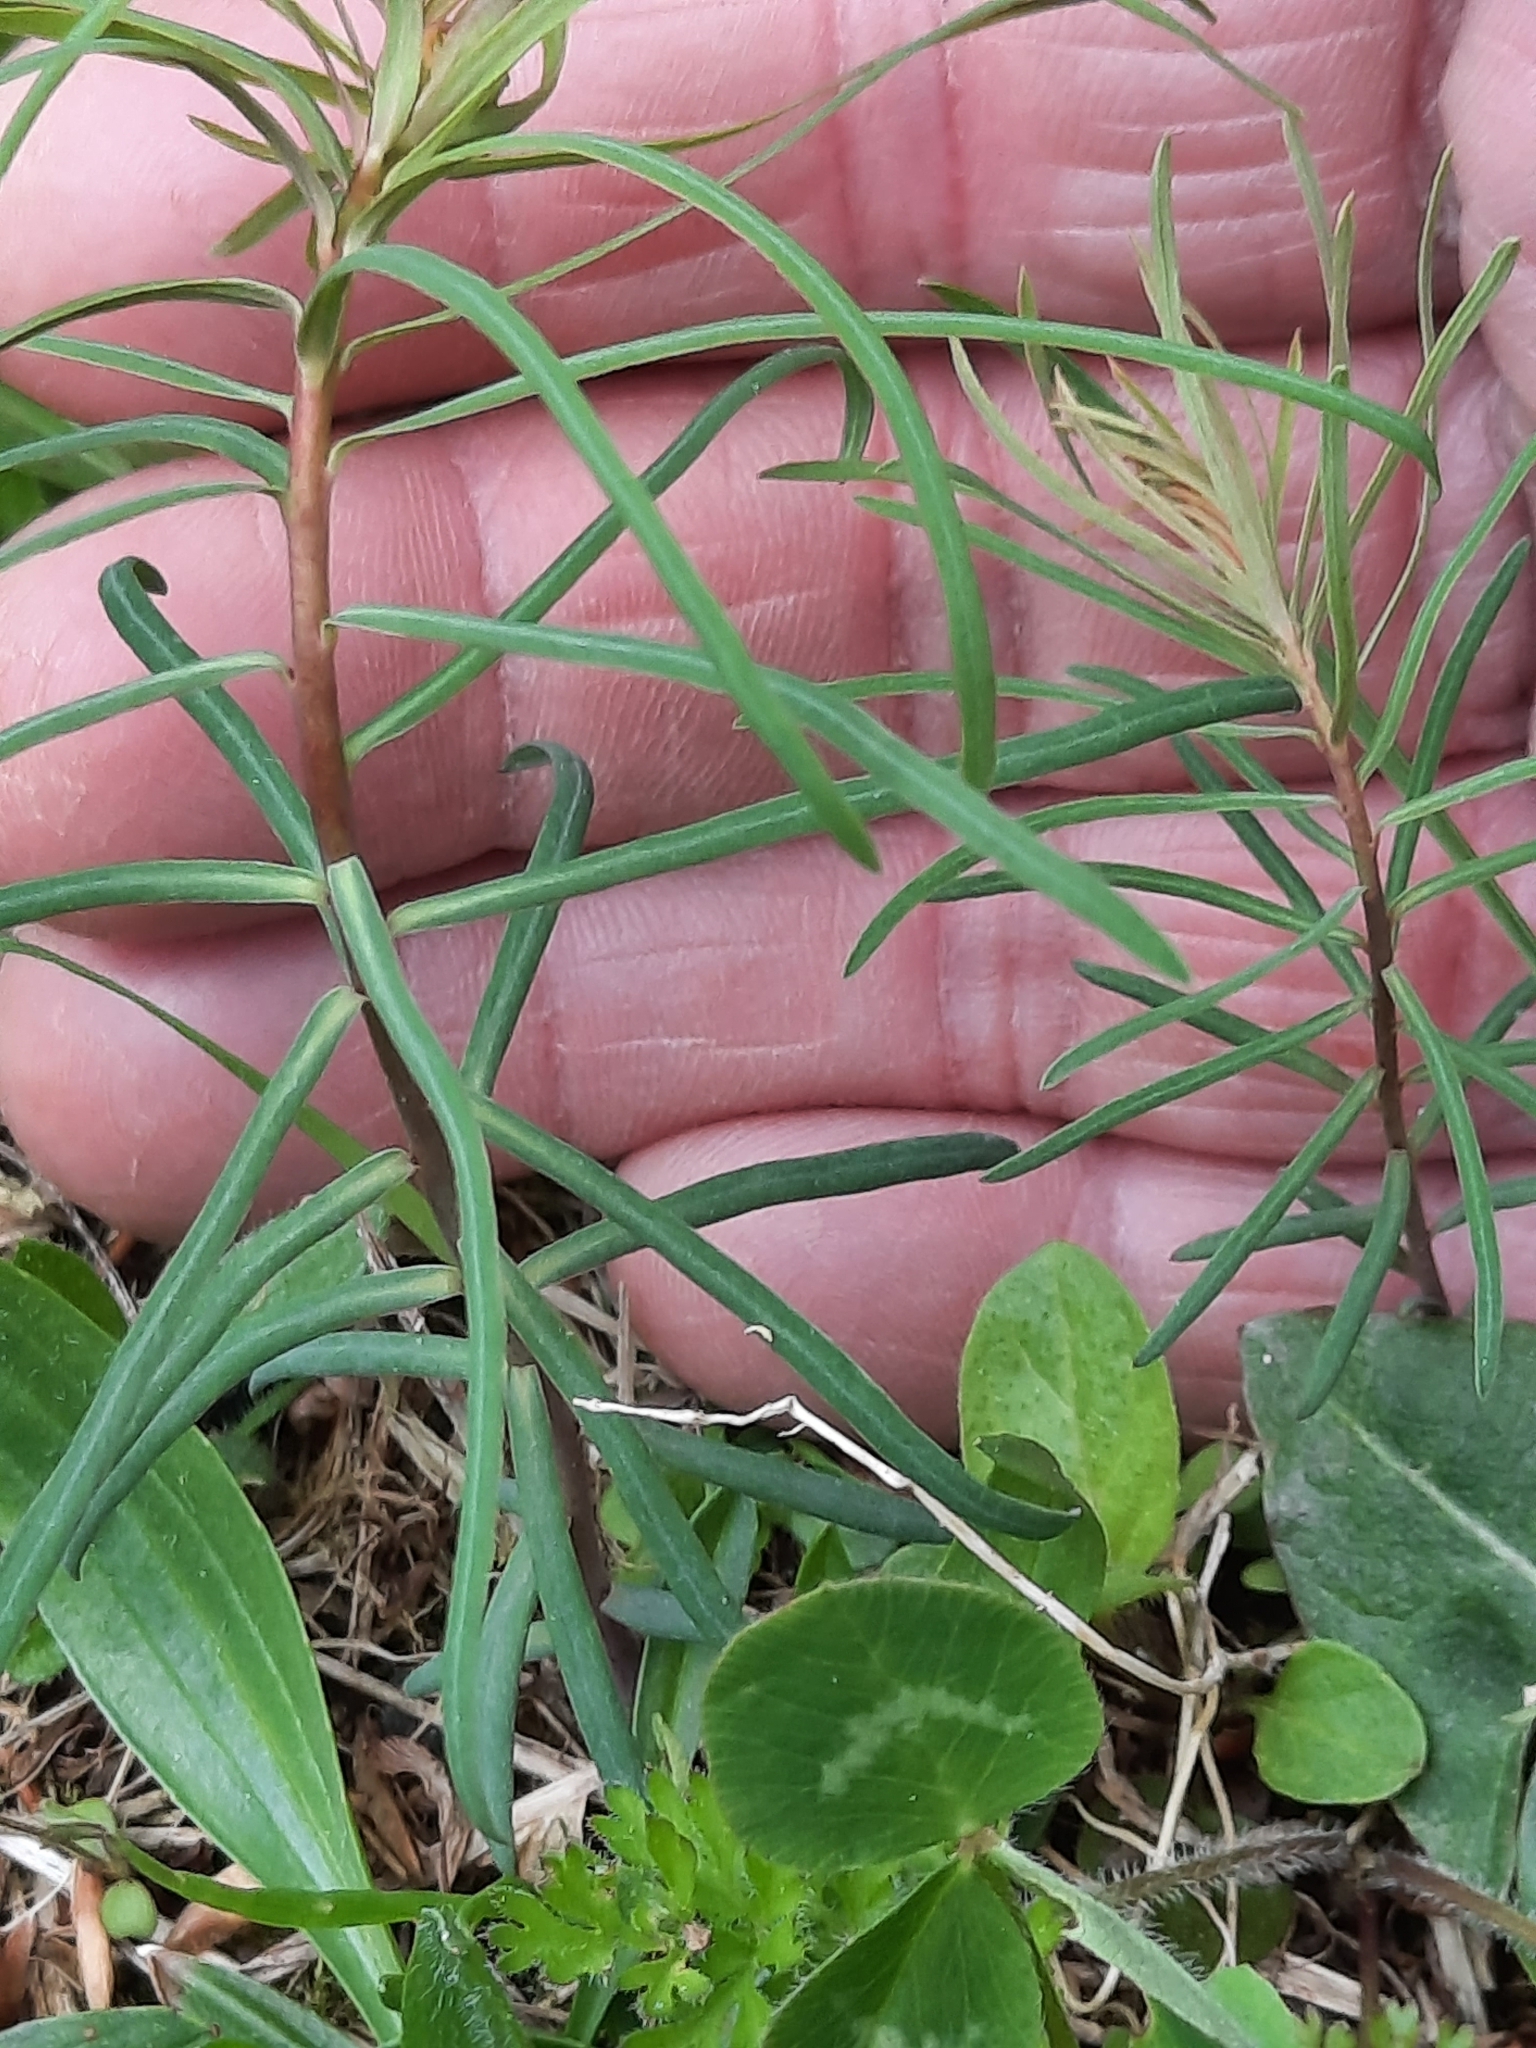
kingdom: Plantae
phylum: Tracheophyta
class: Magnoliopsida
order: Malpighiales
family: Euphorbiaceae
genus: Euphorbia
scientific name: Euphorbia cyparissias
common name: Cypress spurge
